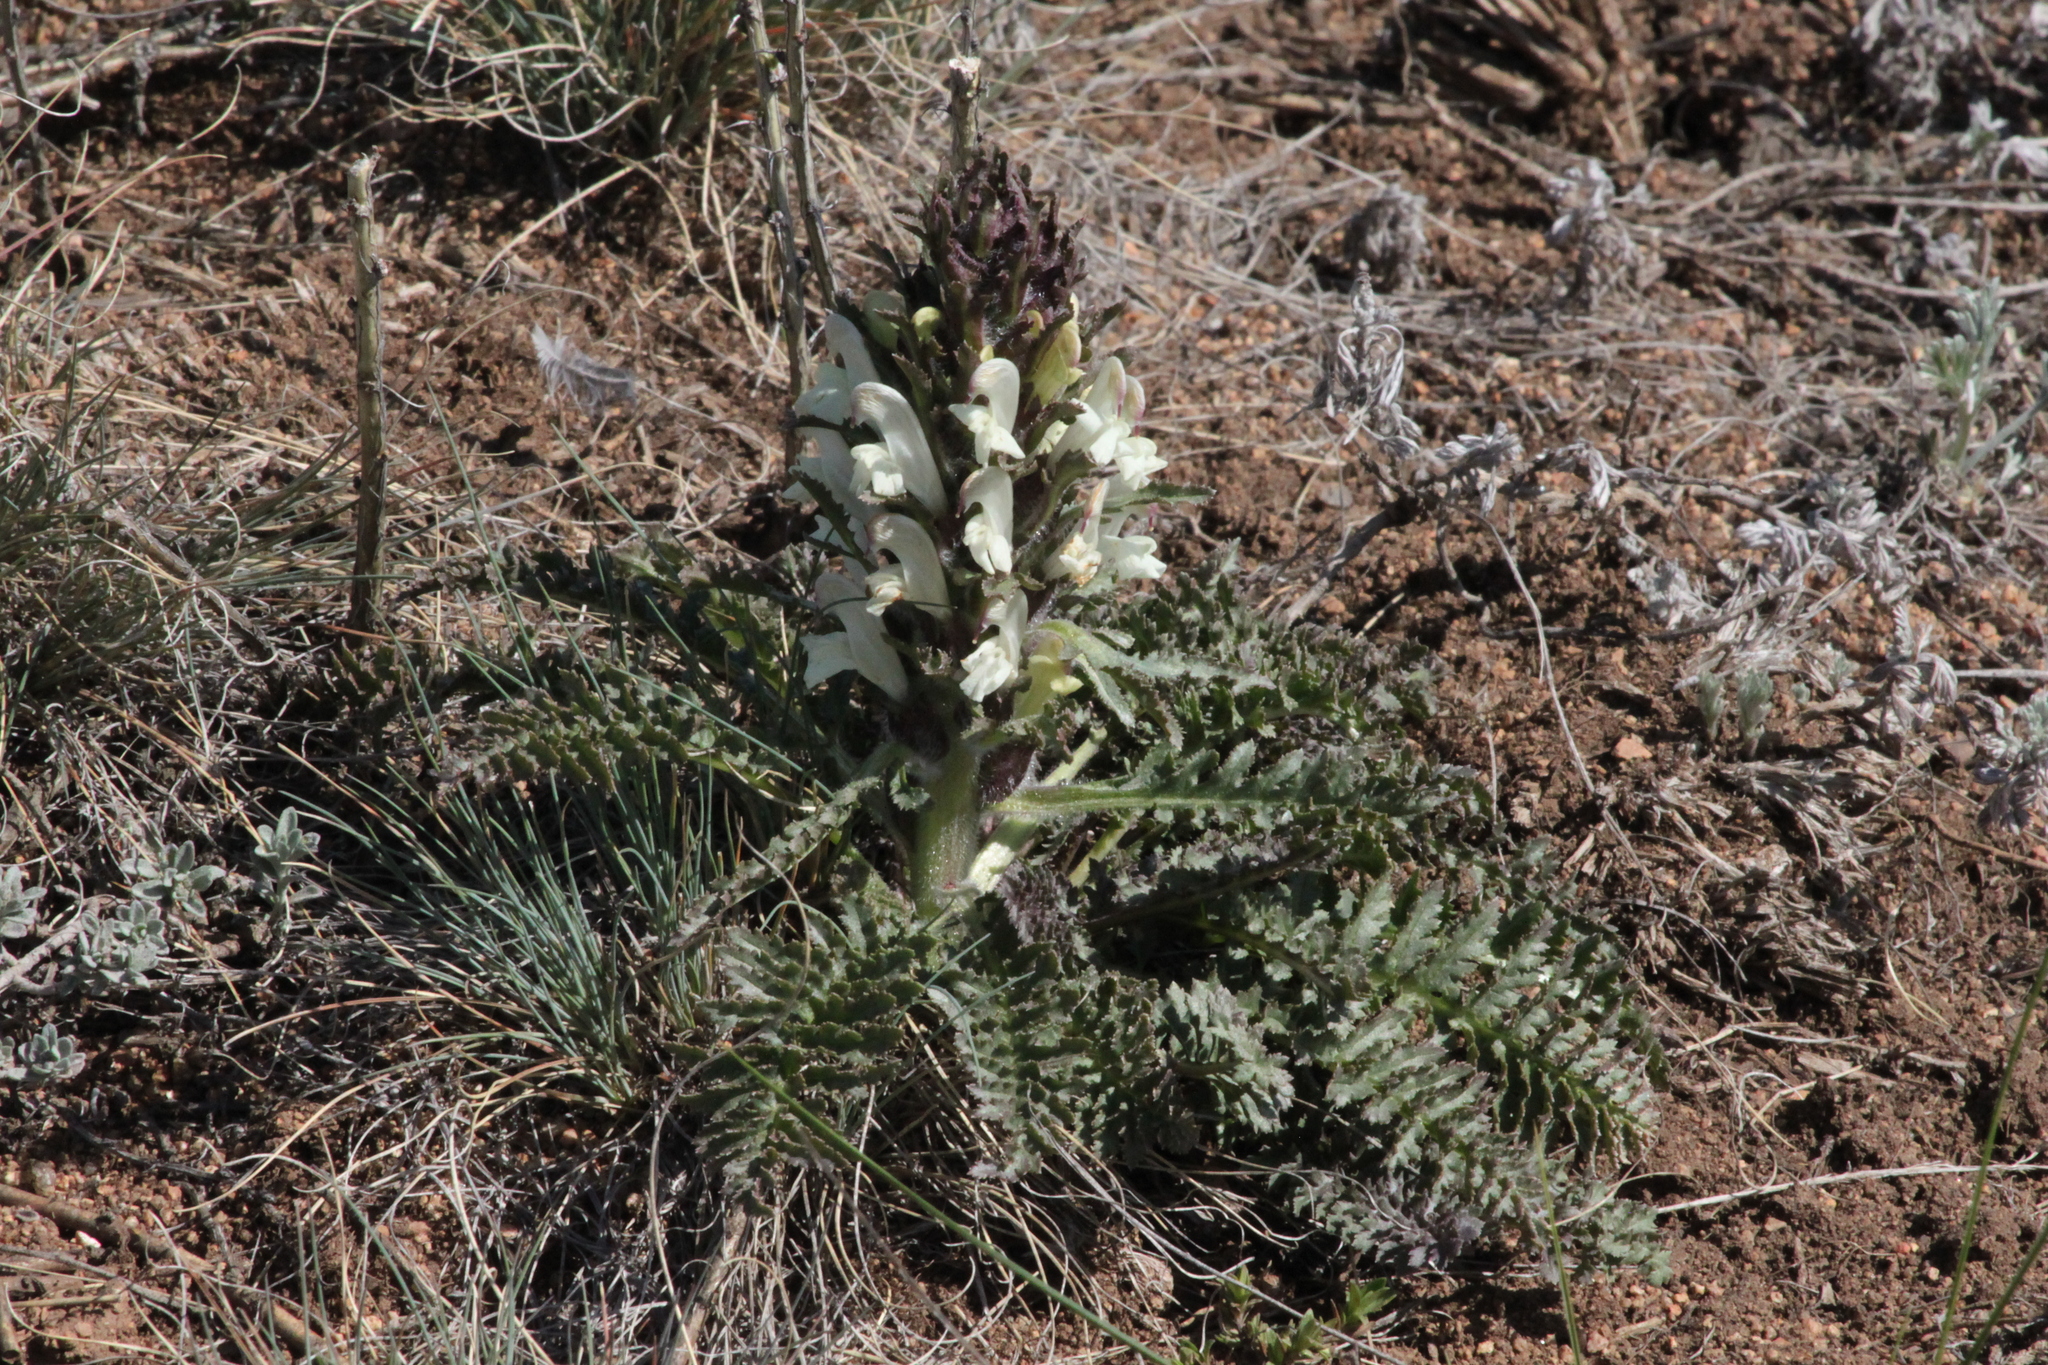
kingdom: Plantae
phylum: Tracheophyta
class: Magnoliopsida
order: Lamiales
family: Orobanchaceae
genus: Pedicularis
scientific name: Pedicularis physocalyx
